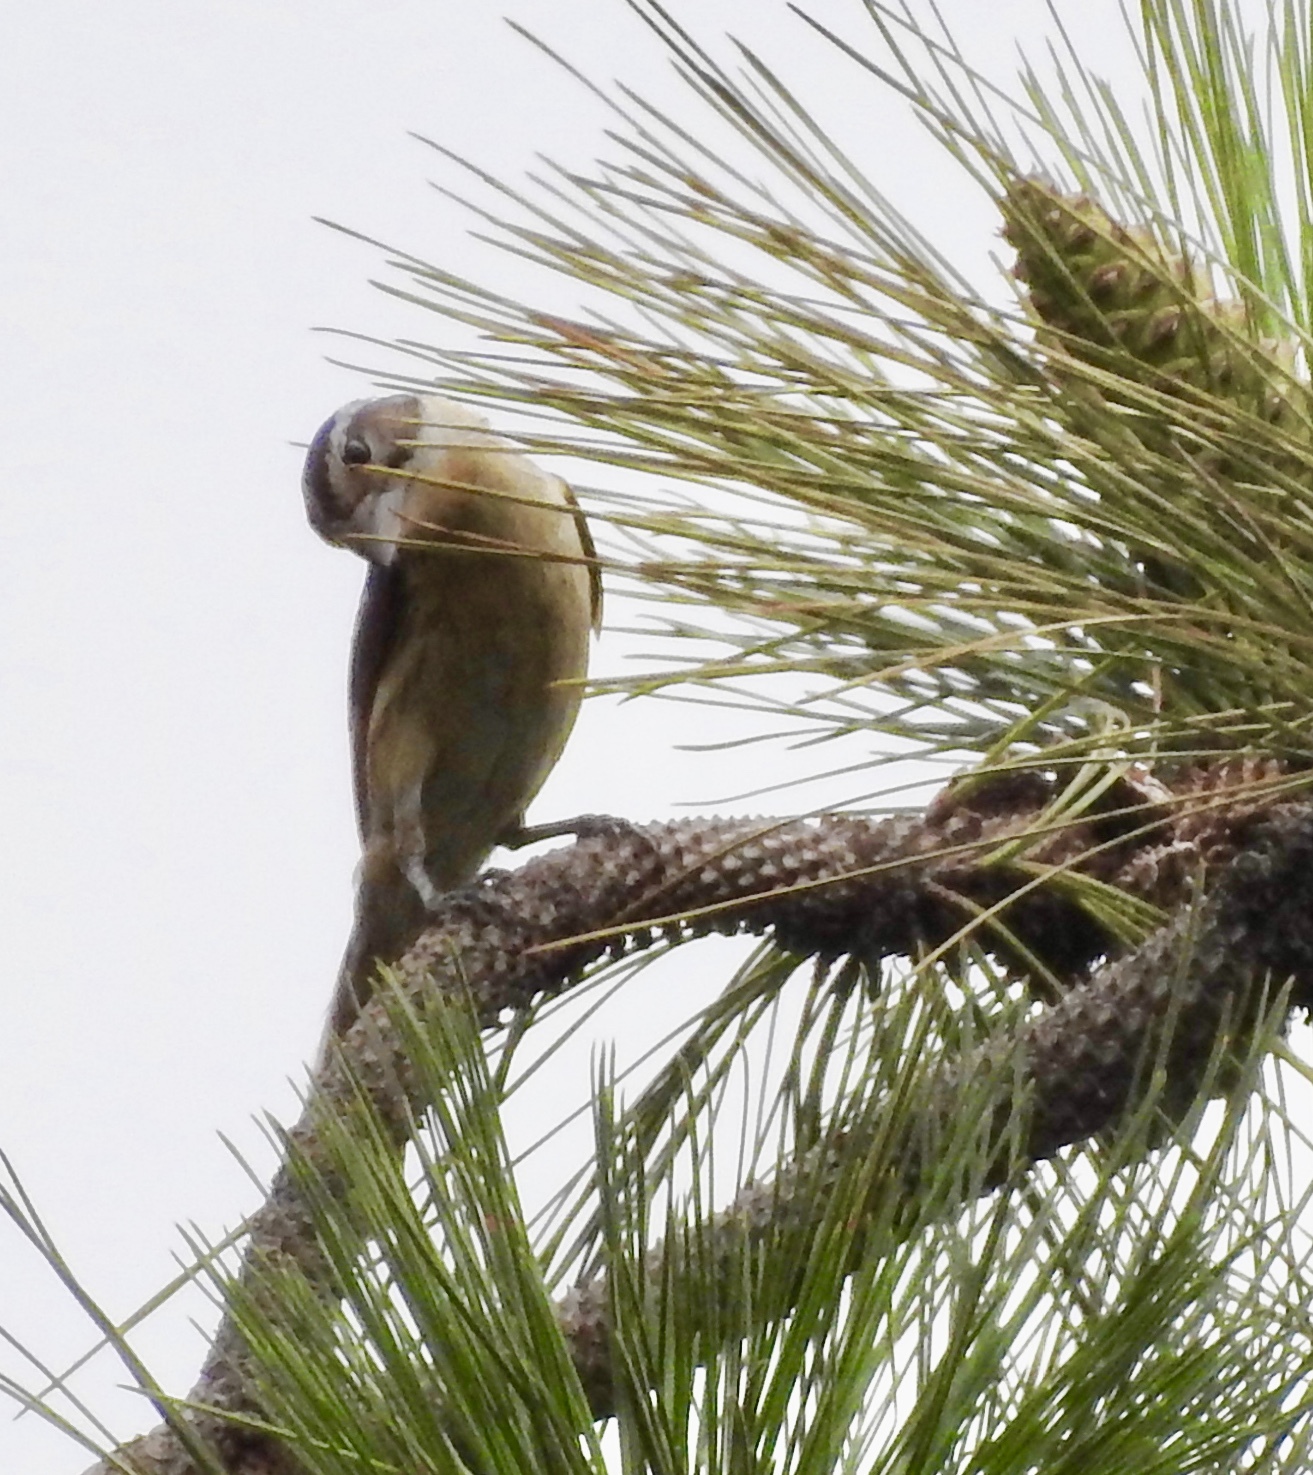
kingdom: Animalia
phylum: Chordata
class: Aves
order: Passeriformes
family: Cardinalidae
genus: Pheucticus
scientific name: Pheucticus melanocephalus
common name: Black-headed grosbeak
